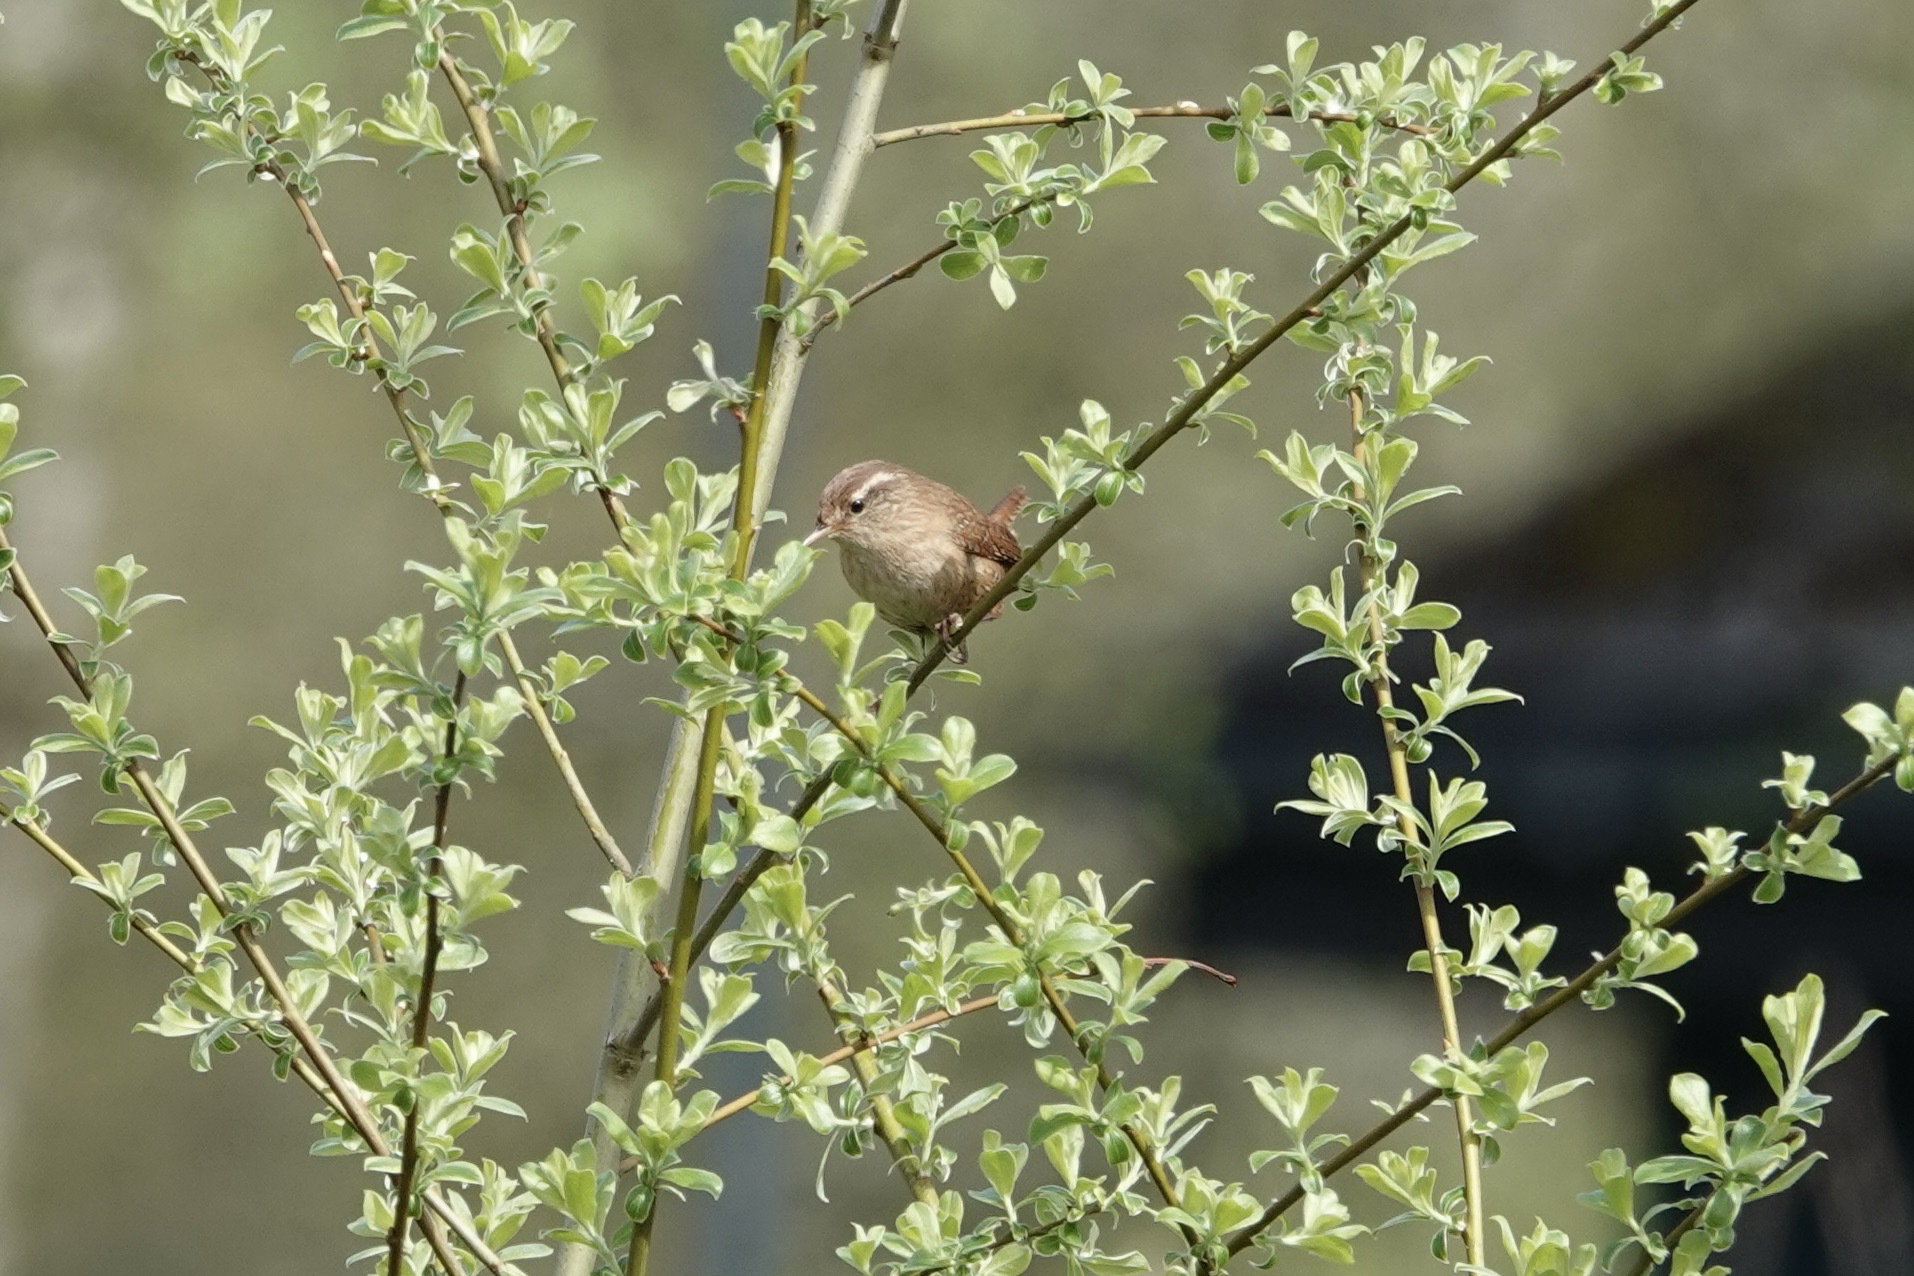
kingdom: Animalia
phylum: Chordata
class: Aves
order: Passeriformes
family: Troglodytidae
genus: Troglodytes
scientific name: Troglodytes troglodytes
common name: Eurasian wren
